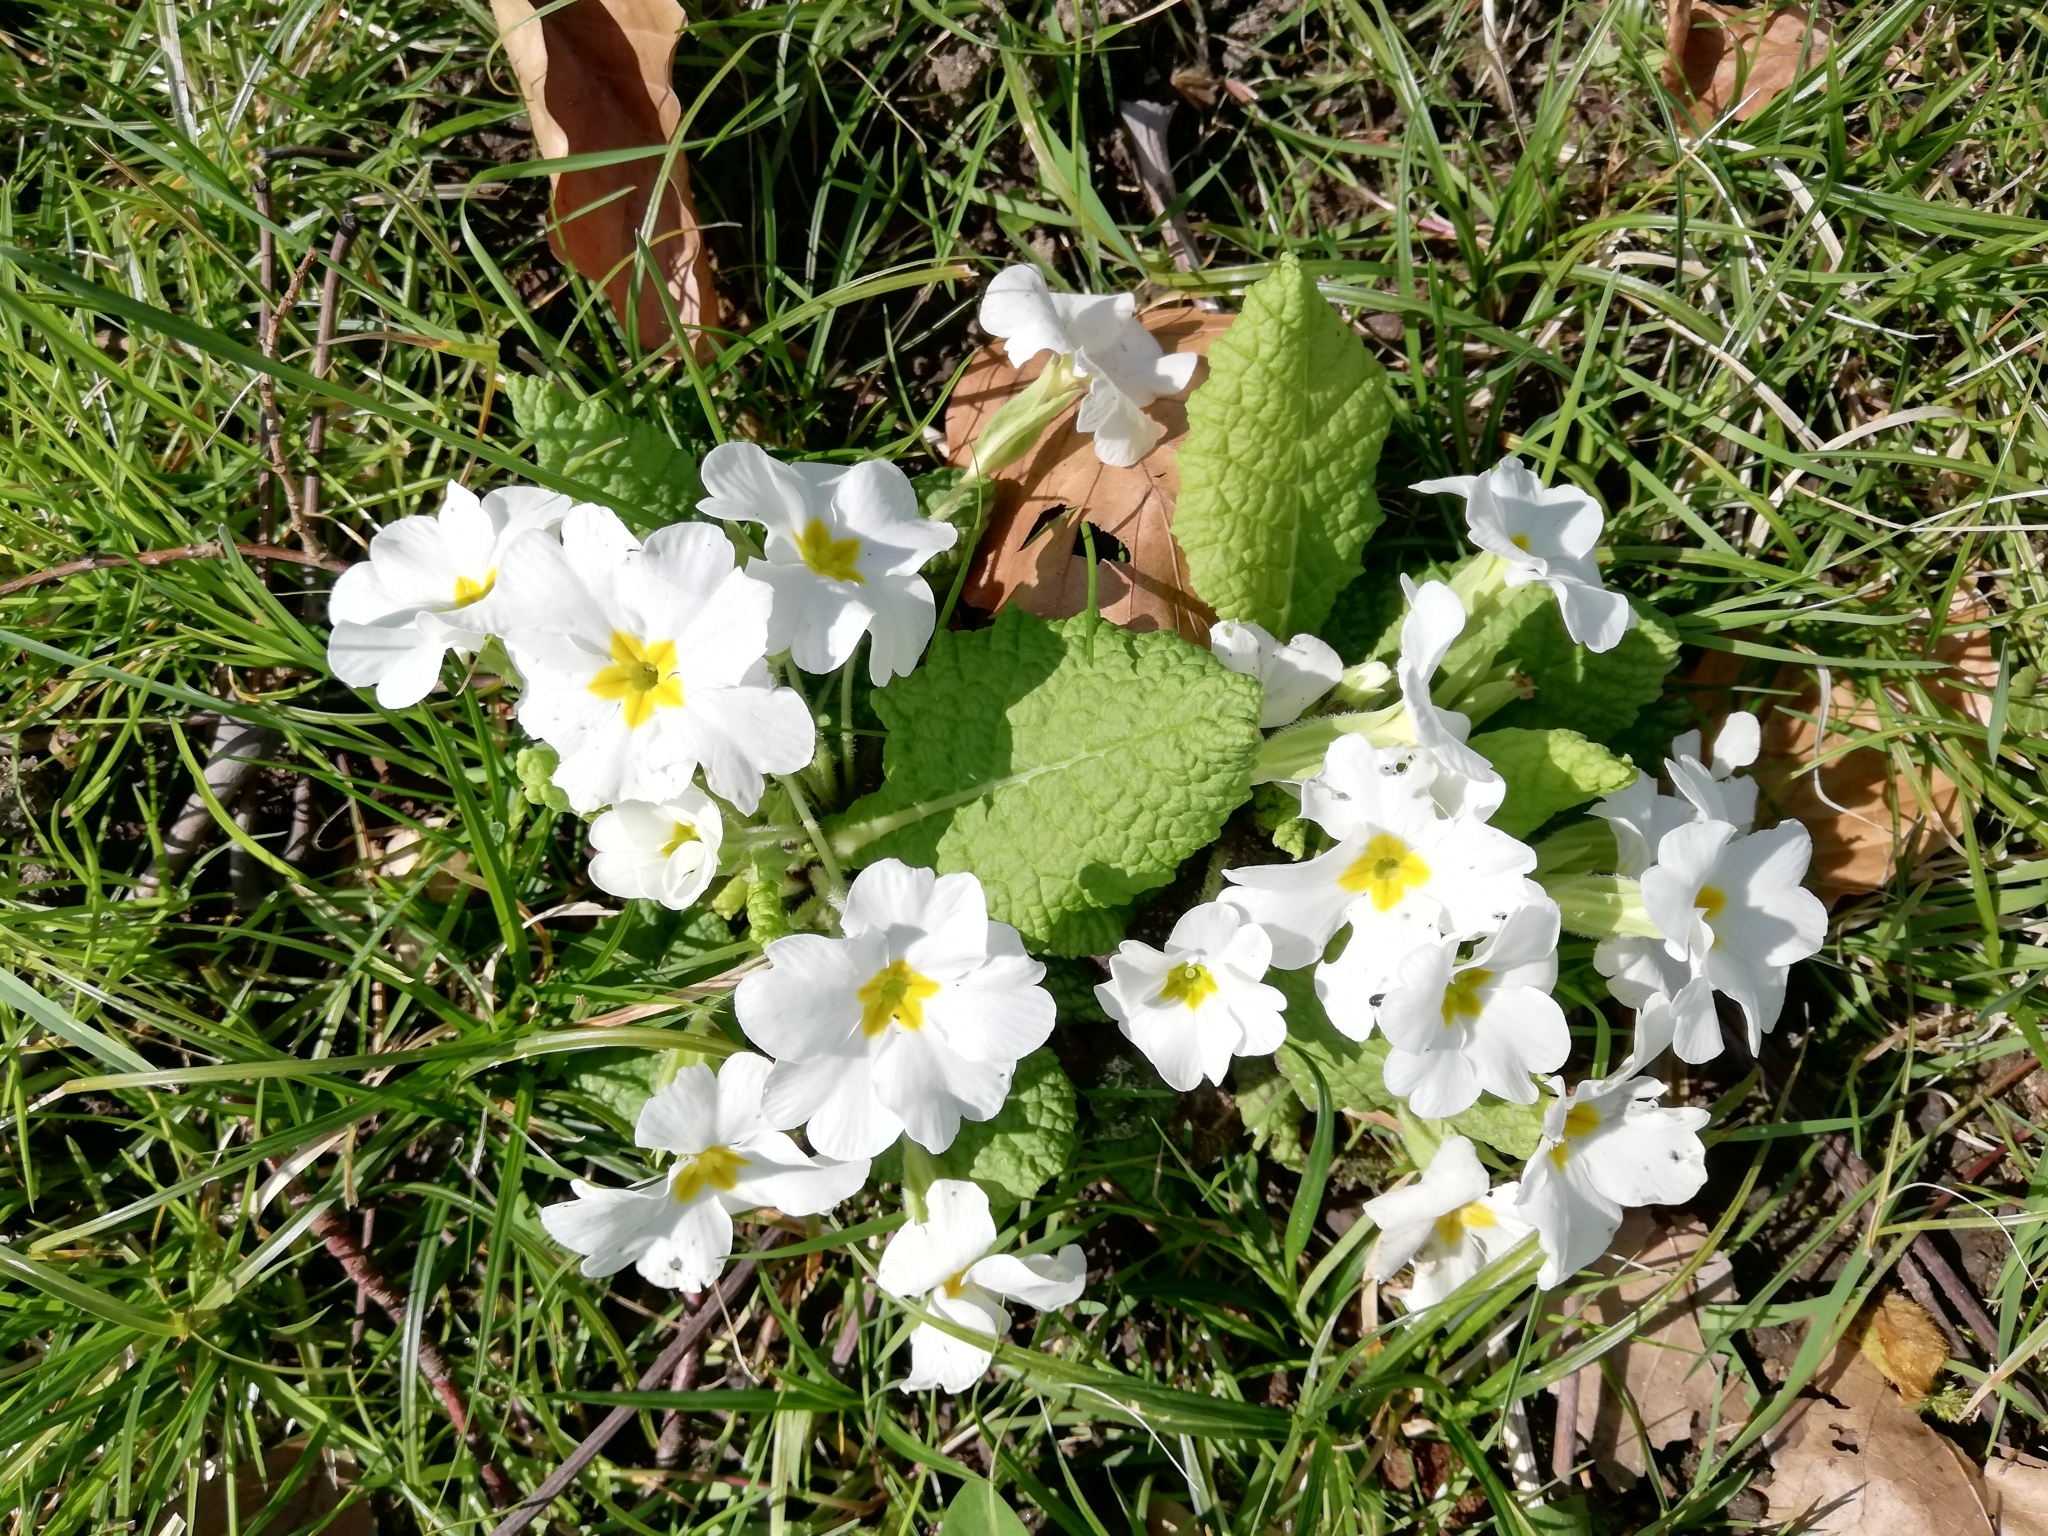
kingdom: Plantae
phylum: Tracheophyta
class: Magnoliopsida
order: Ericales
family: Primulaceae
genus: Primula
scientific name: Primula vulgaris
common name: Primrose
